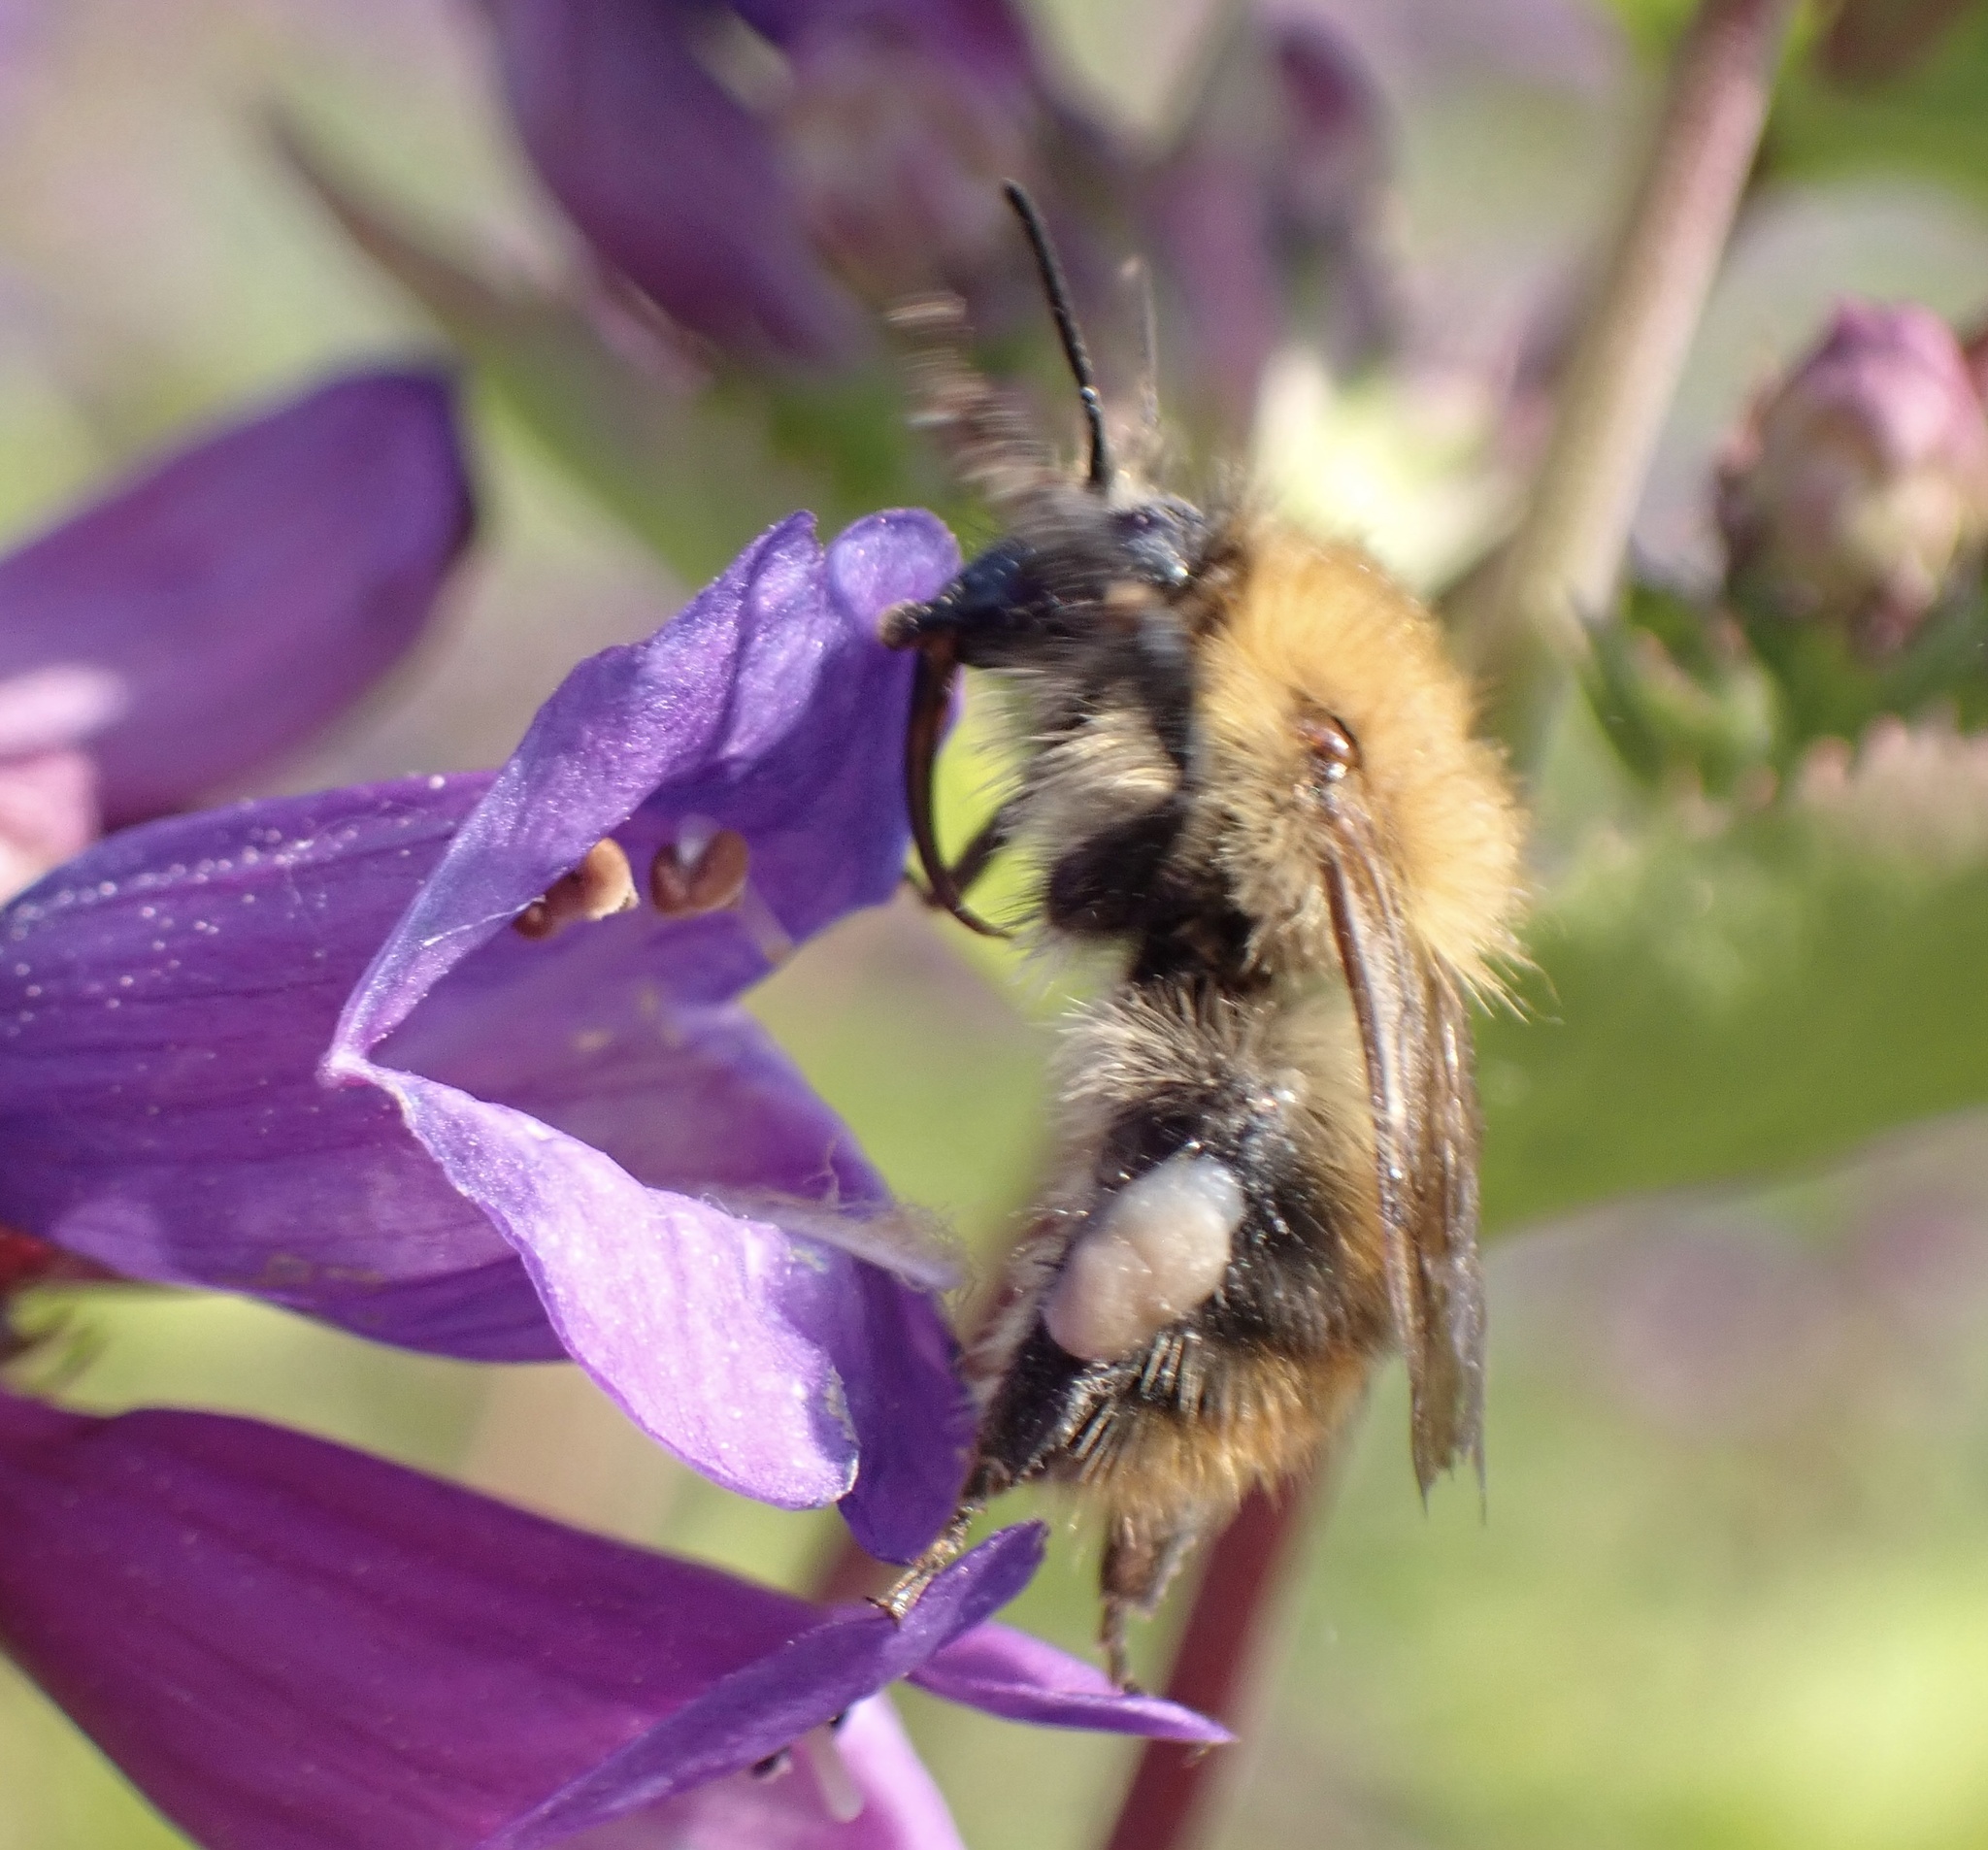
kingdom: Animalia
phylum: Arthropoda
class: Insecta
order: Hymenoptera
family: Apidae
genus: Bombus
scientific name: Bombus pascuorum
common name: Common carder bee
